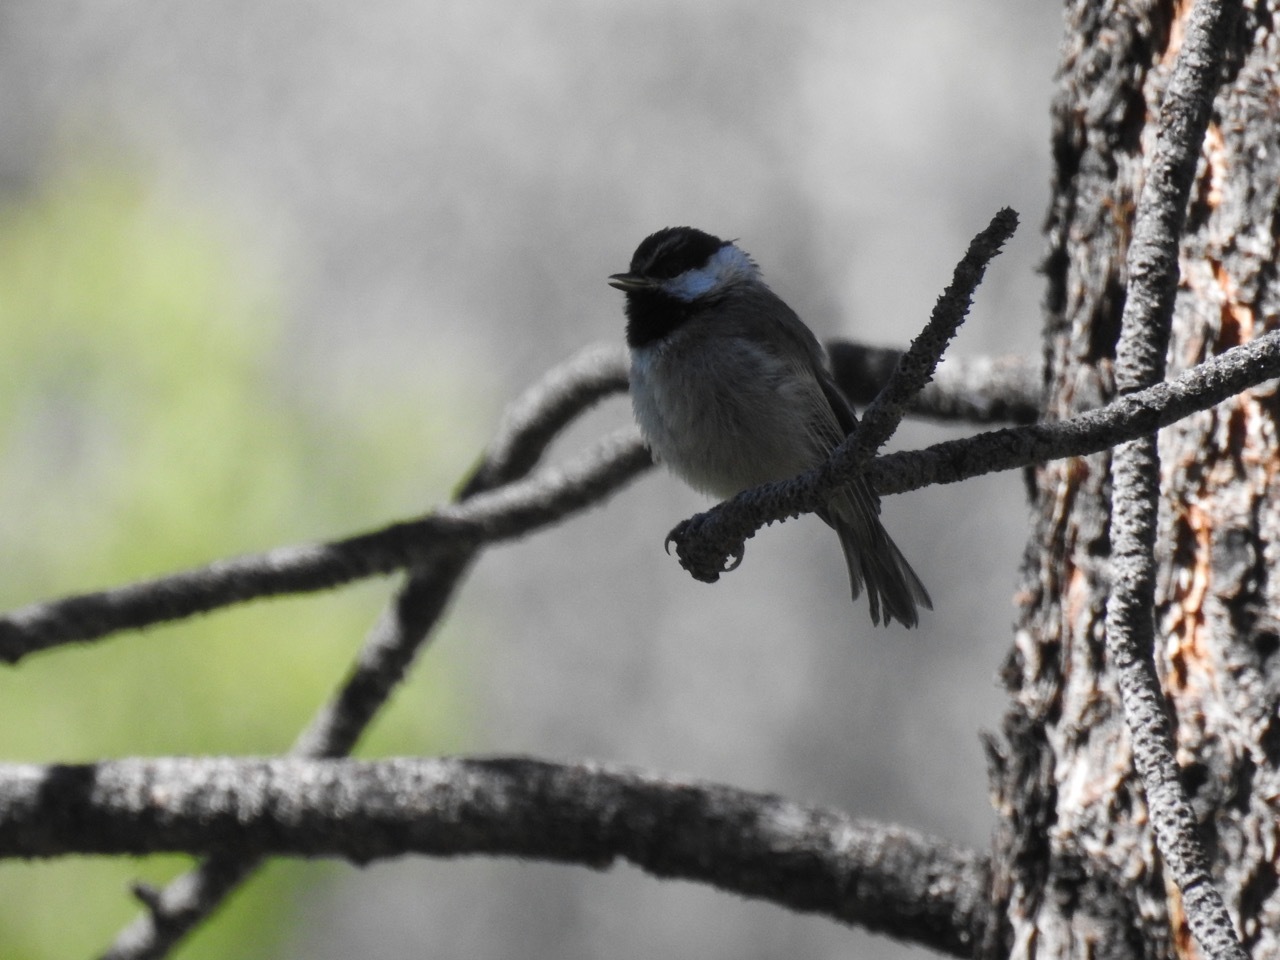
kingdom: Animalia
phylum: Chordata
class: Aves
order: Passeriformes
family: Paridae
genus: Poecile
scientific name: Poecile gambeli
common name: Mountain chickadee
